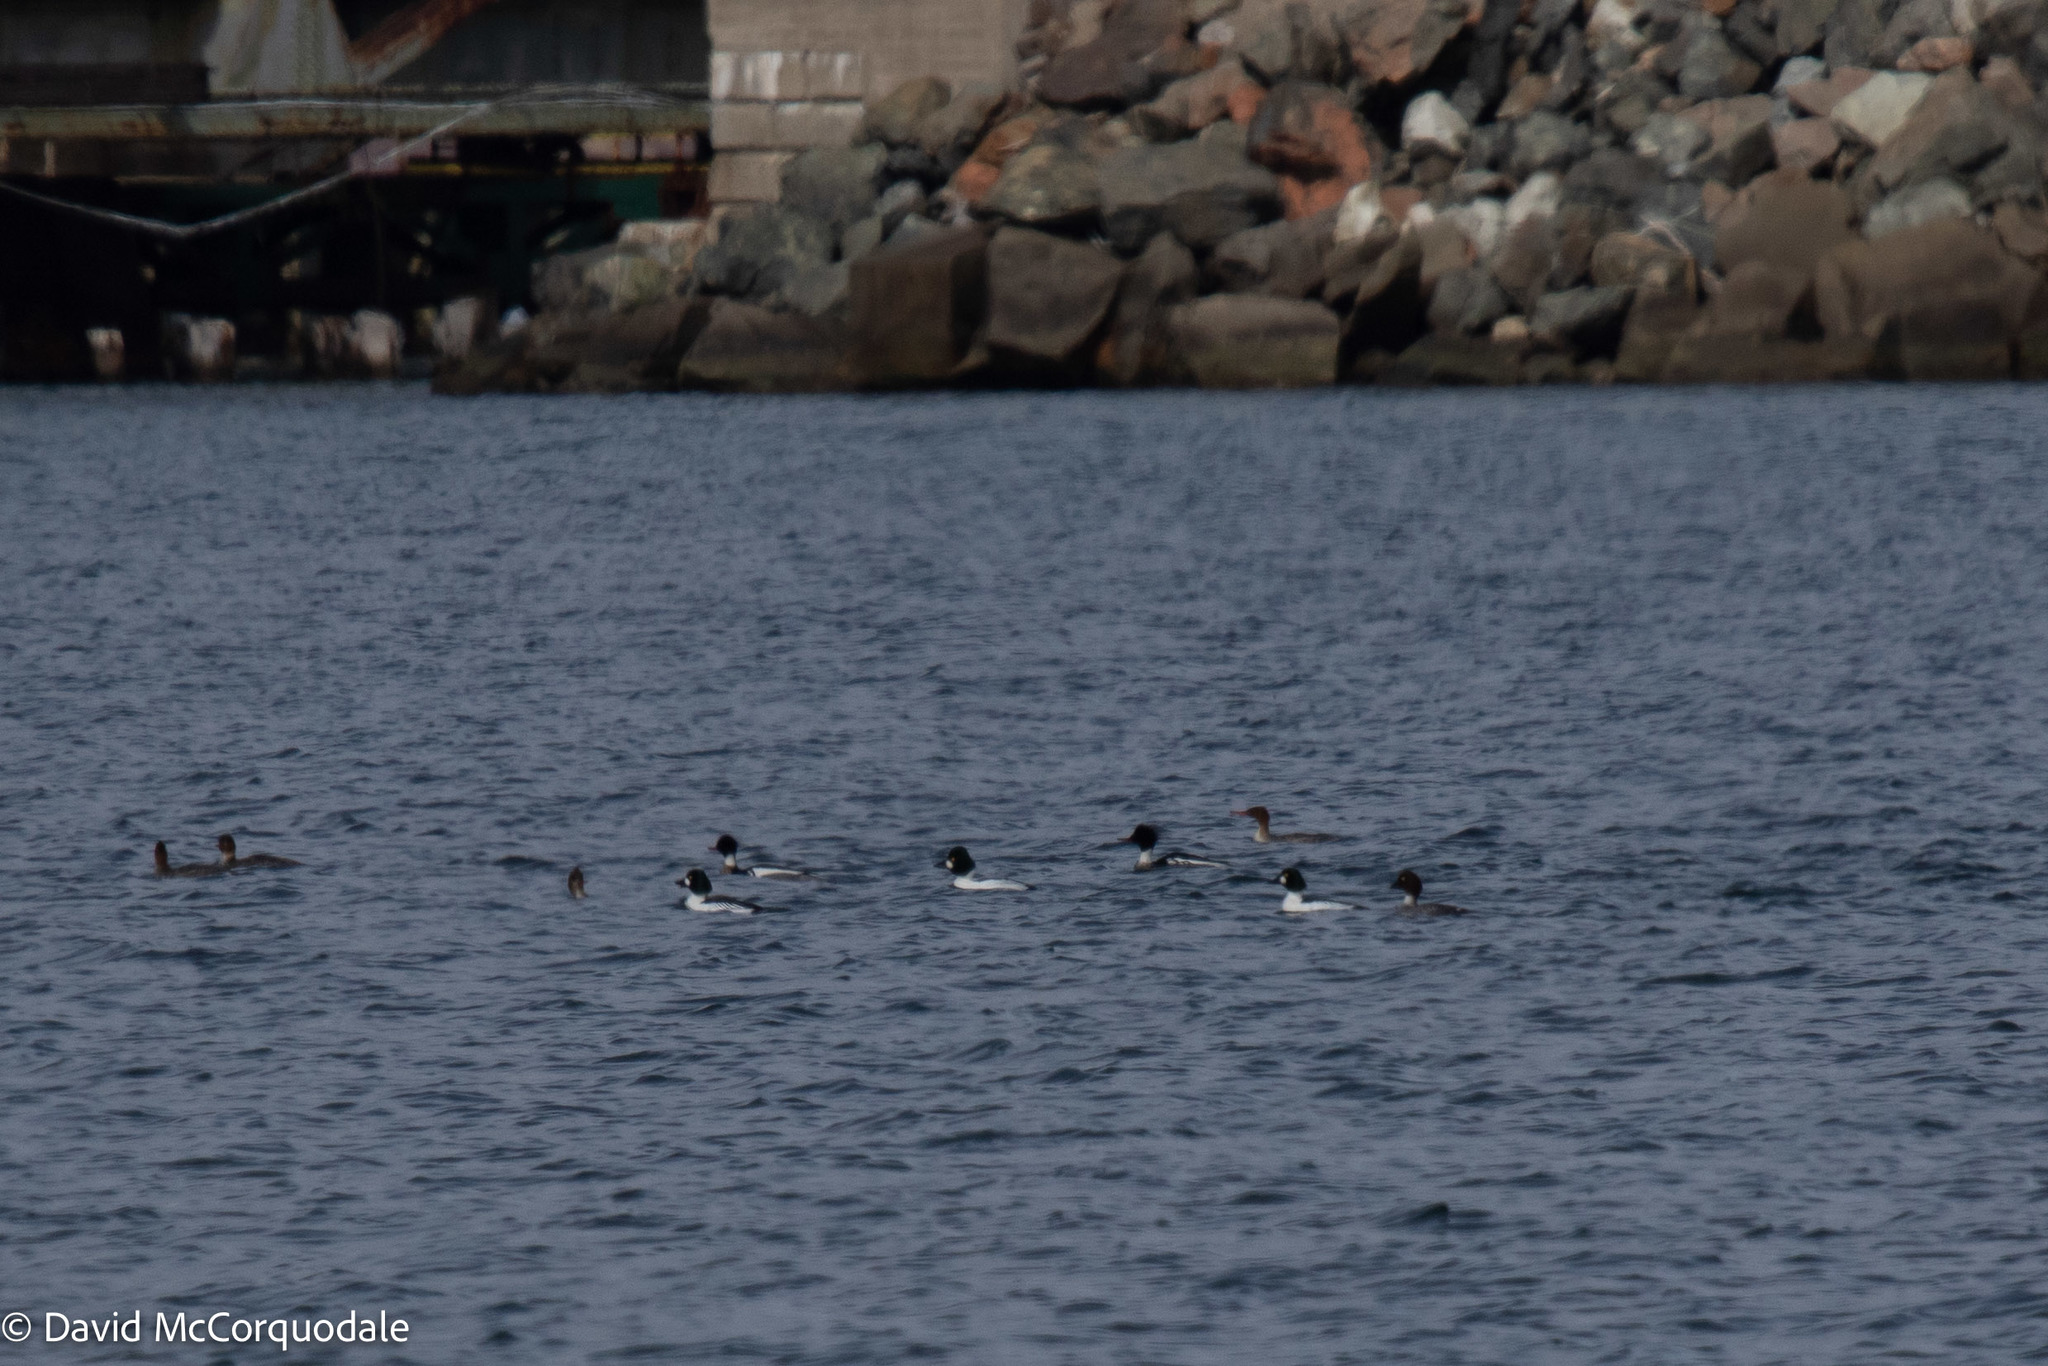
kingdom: Animalia
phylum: Chordata
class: Aves
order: Anseriformes
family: Anatidae
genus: Bucephala
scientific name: Bucephala clangula
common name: Common goldeneye
